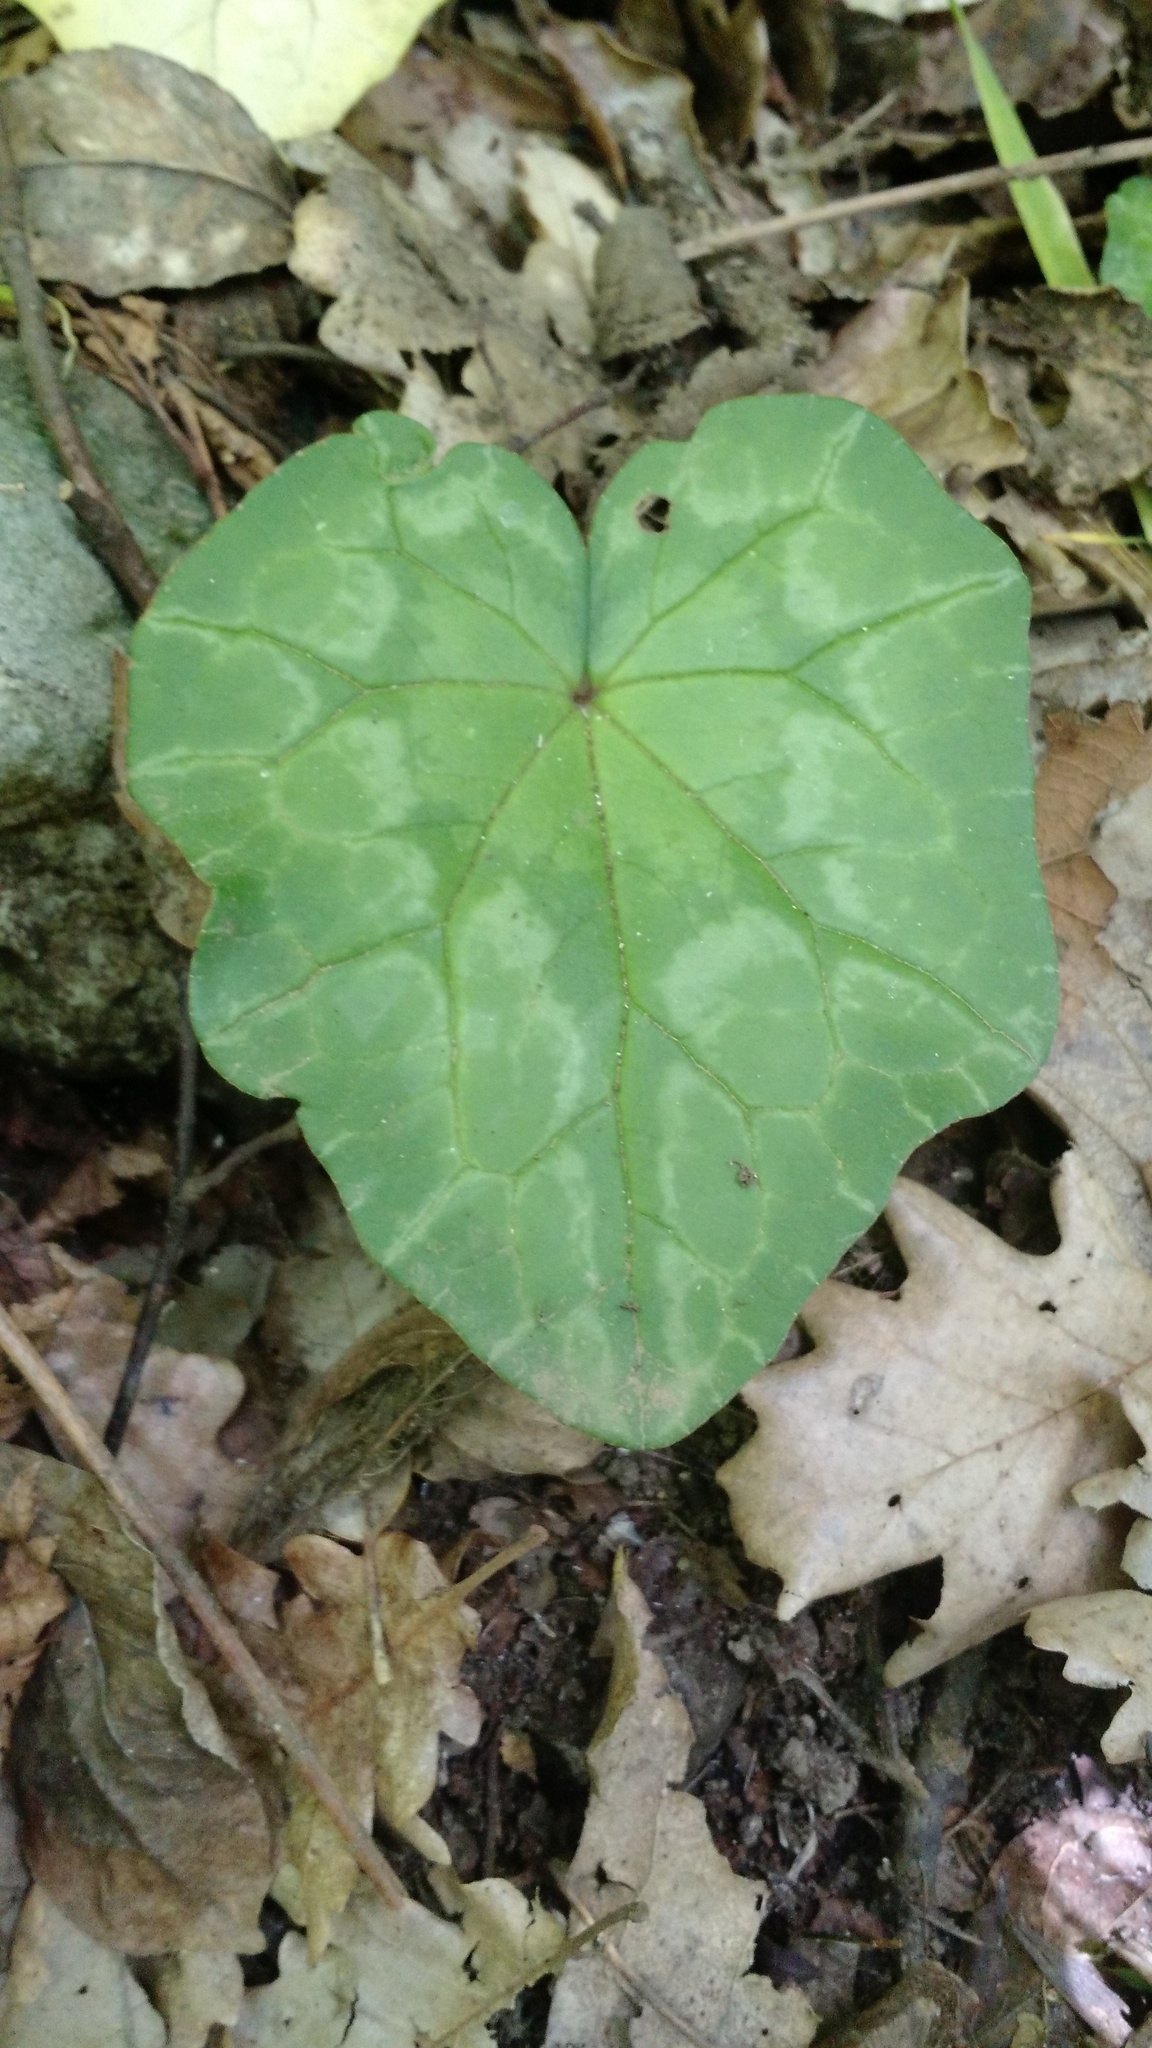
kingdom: Plantae
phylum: Tracheophyta
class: Magnoliopsida
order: Ericales
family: Primulaceae
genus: Cyclamen
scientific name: Cyclamen repandum
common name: Spring sowbread
